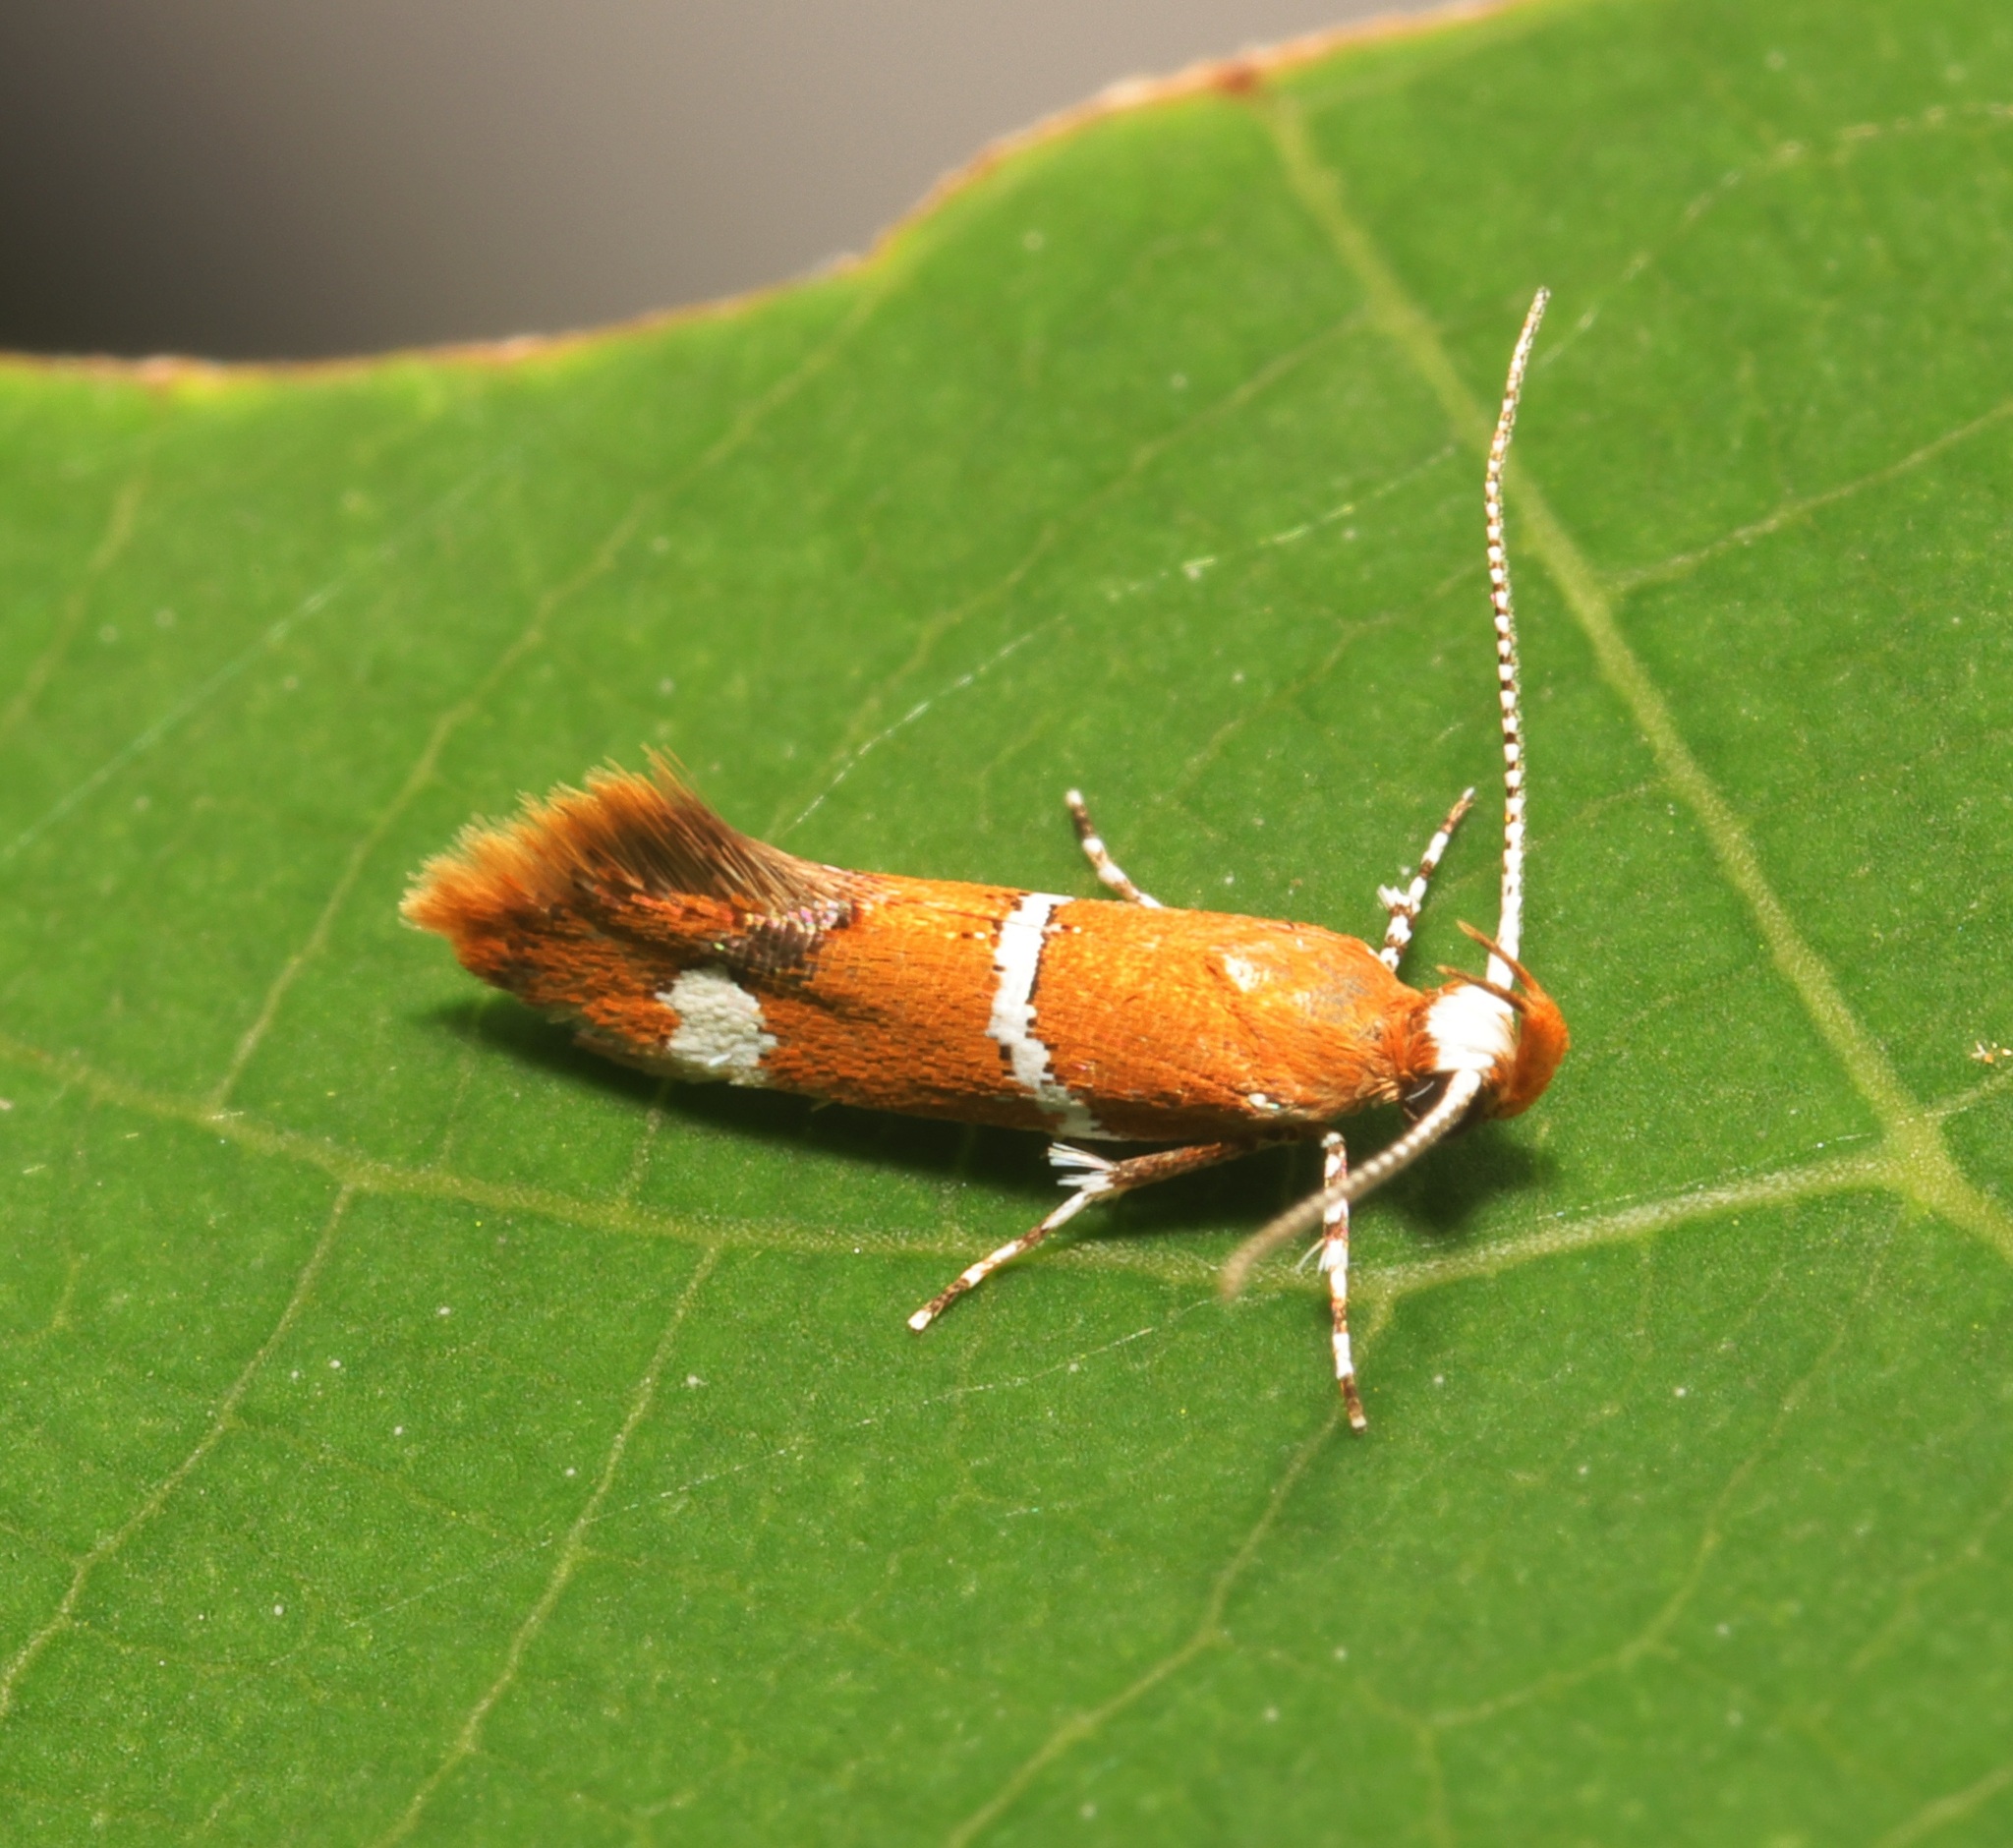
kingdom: Animalia
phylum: Arthropoda
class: Insecta
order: Lepidoptera
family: Oecophoridae
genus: Promalactis
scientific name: Promalactis albisquama
